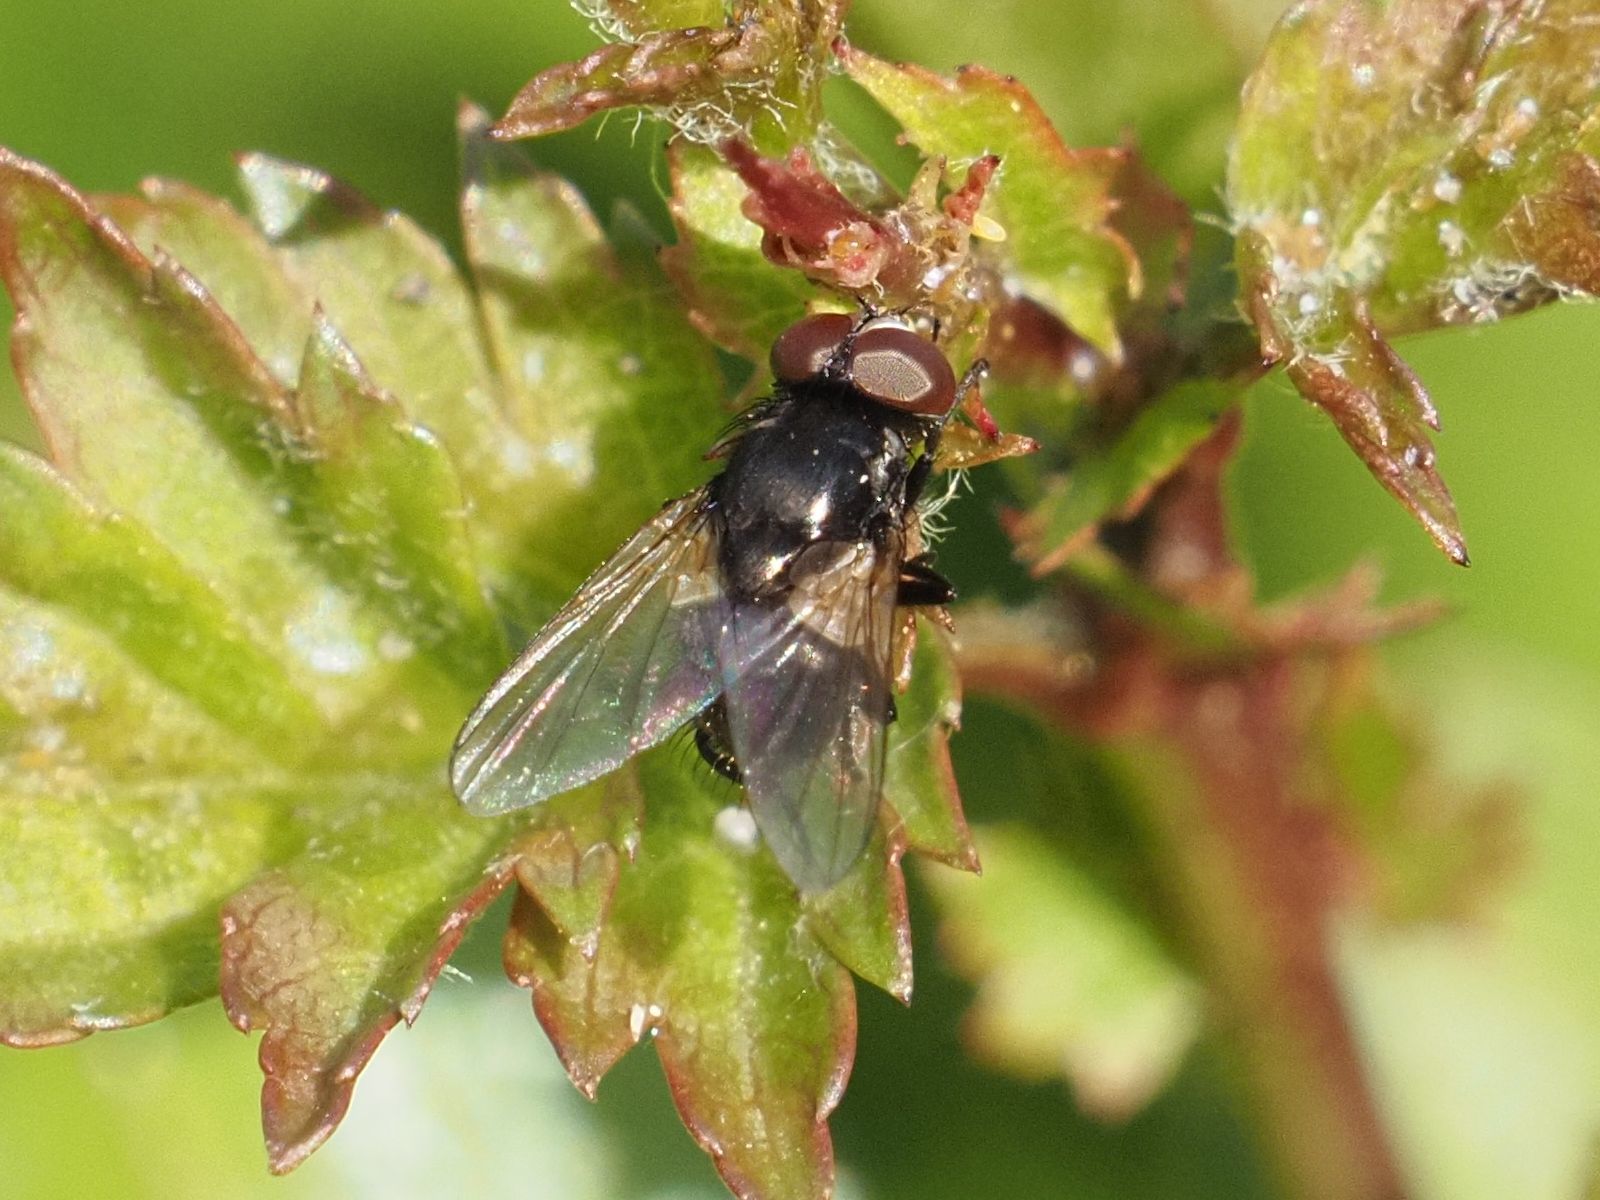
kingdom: Animalia
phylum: Arthropoda
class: Insecta
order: Diptera
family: Muscidae
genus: Musca
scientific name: Musca tempestiva
